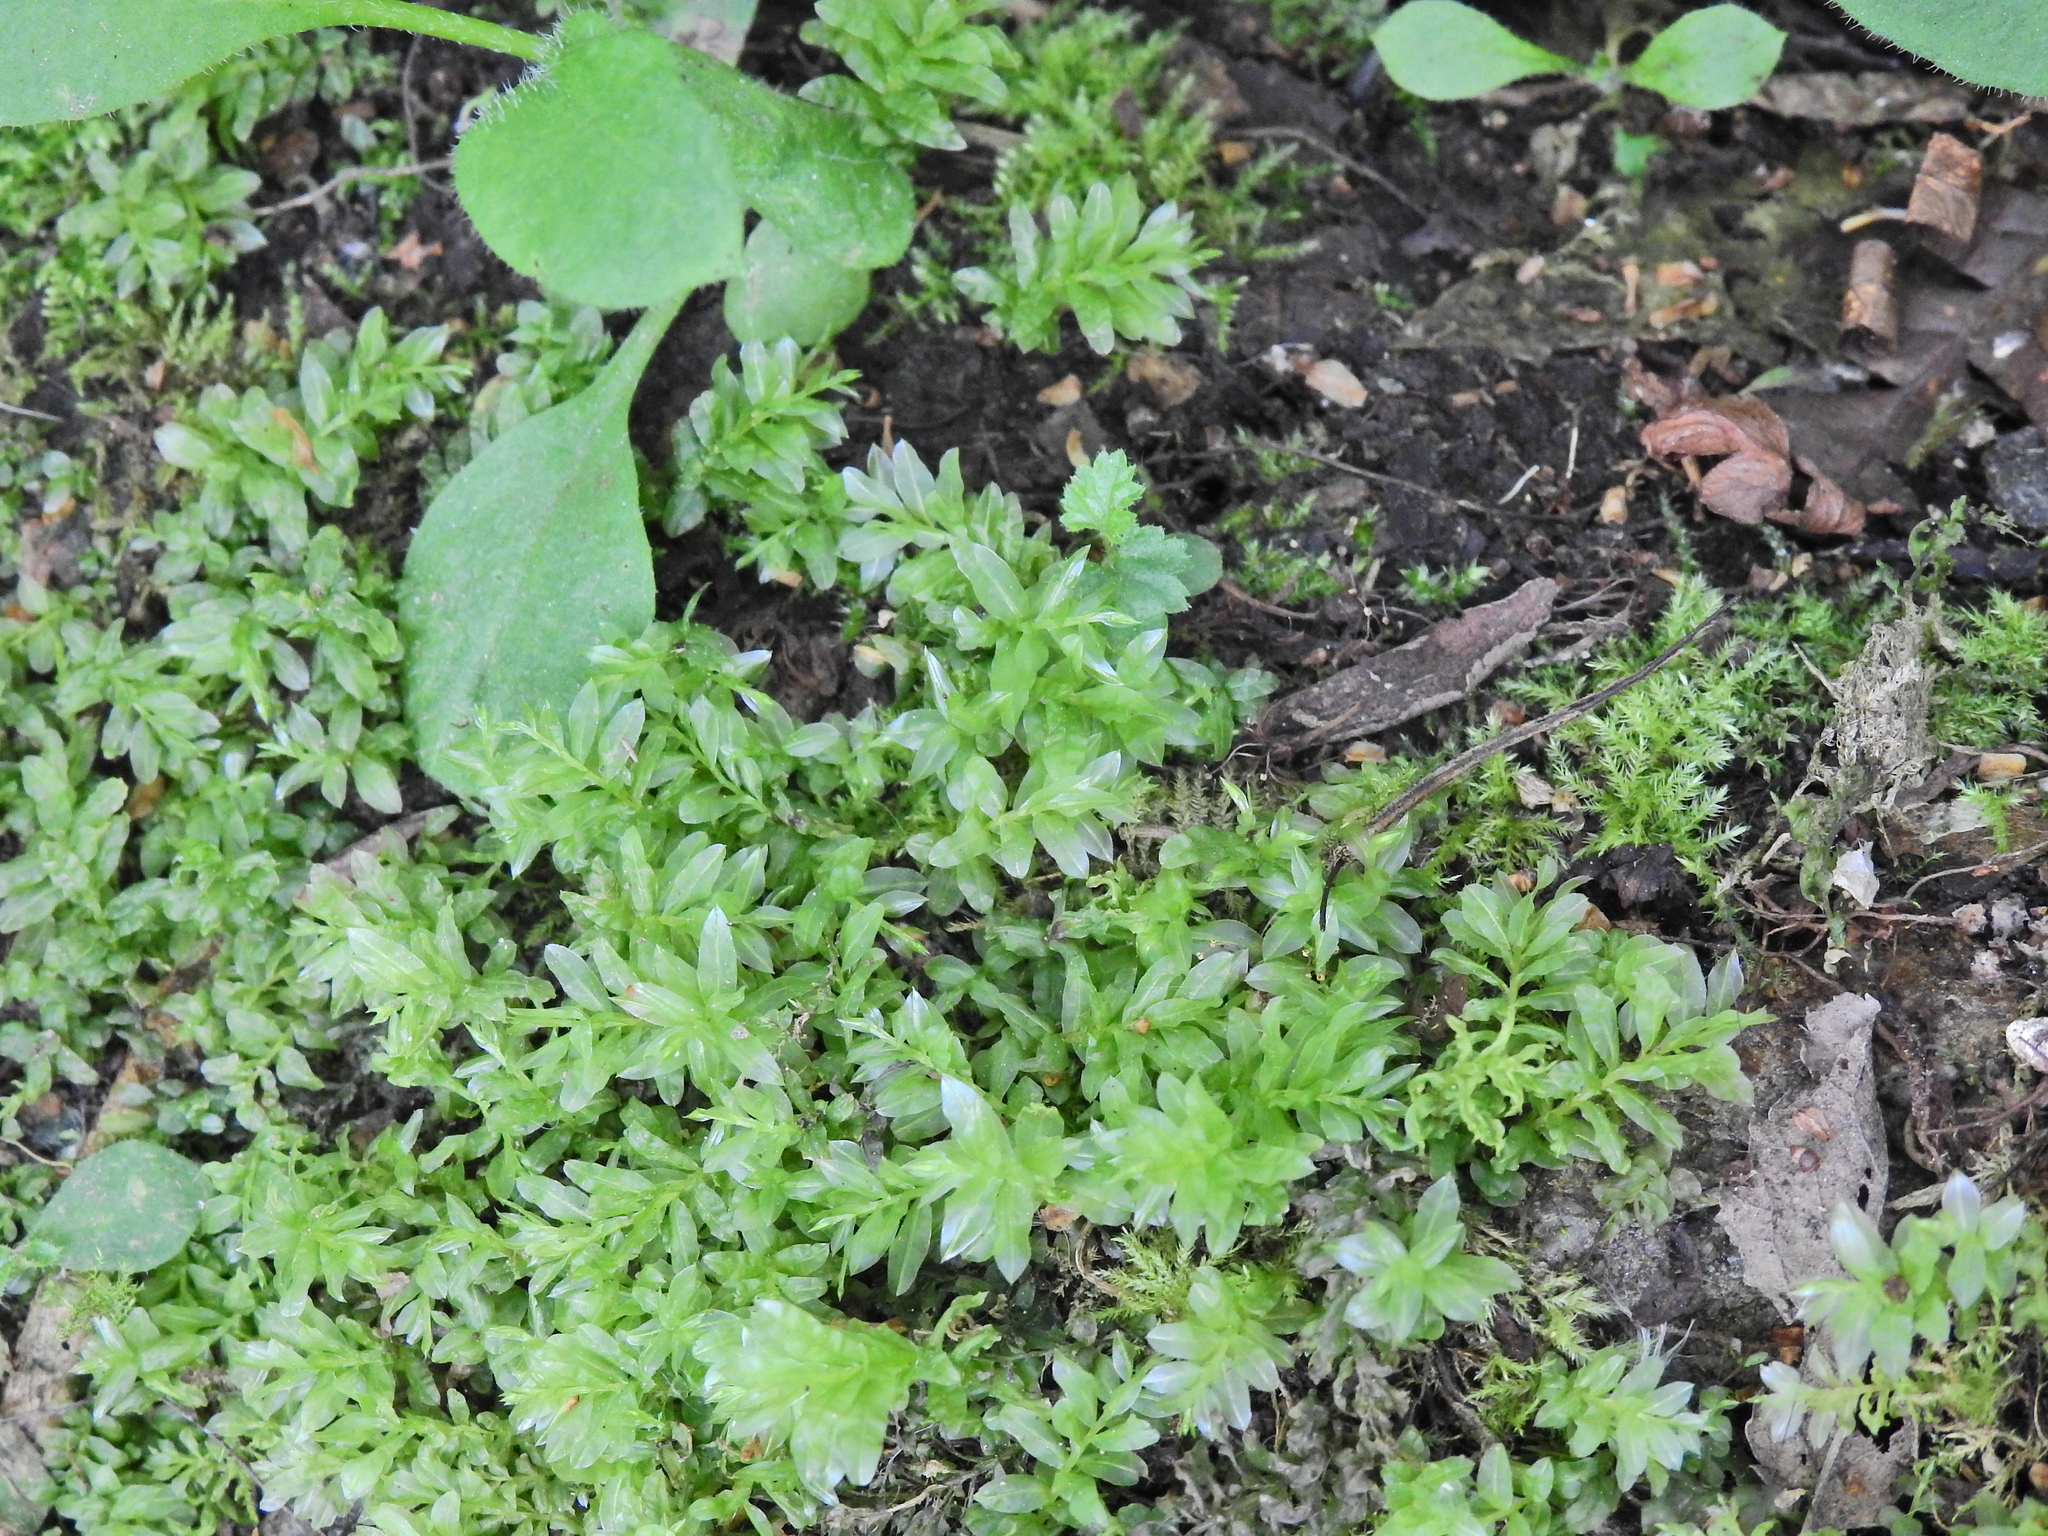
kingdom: Plantae
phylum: Bryophyta
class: Bryopsida
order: Bryales
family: Mniaceae
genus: Plagiomnium
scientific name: Plagiomnium undulatum
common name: Hart's-tongue thyme-moss
